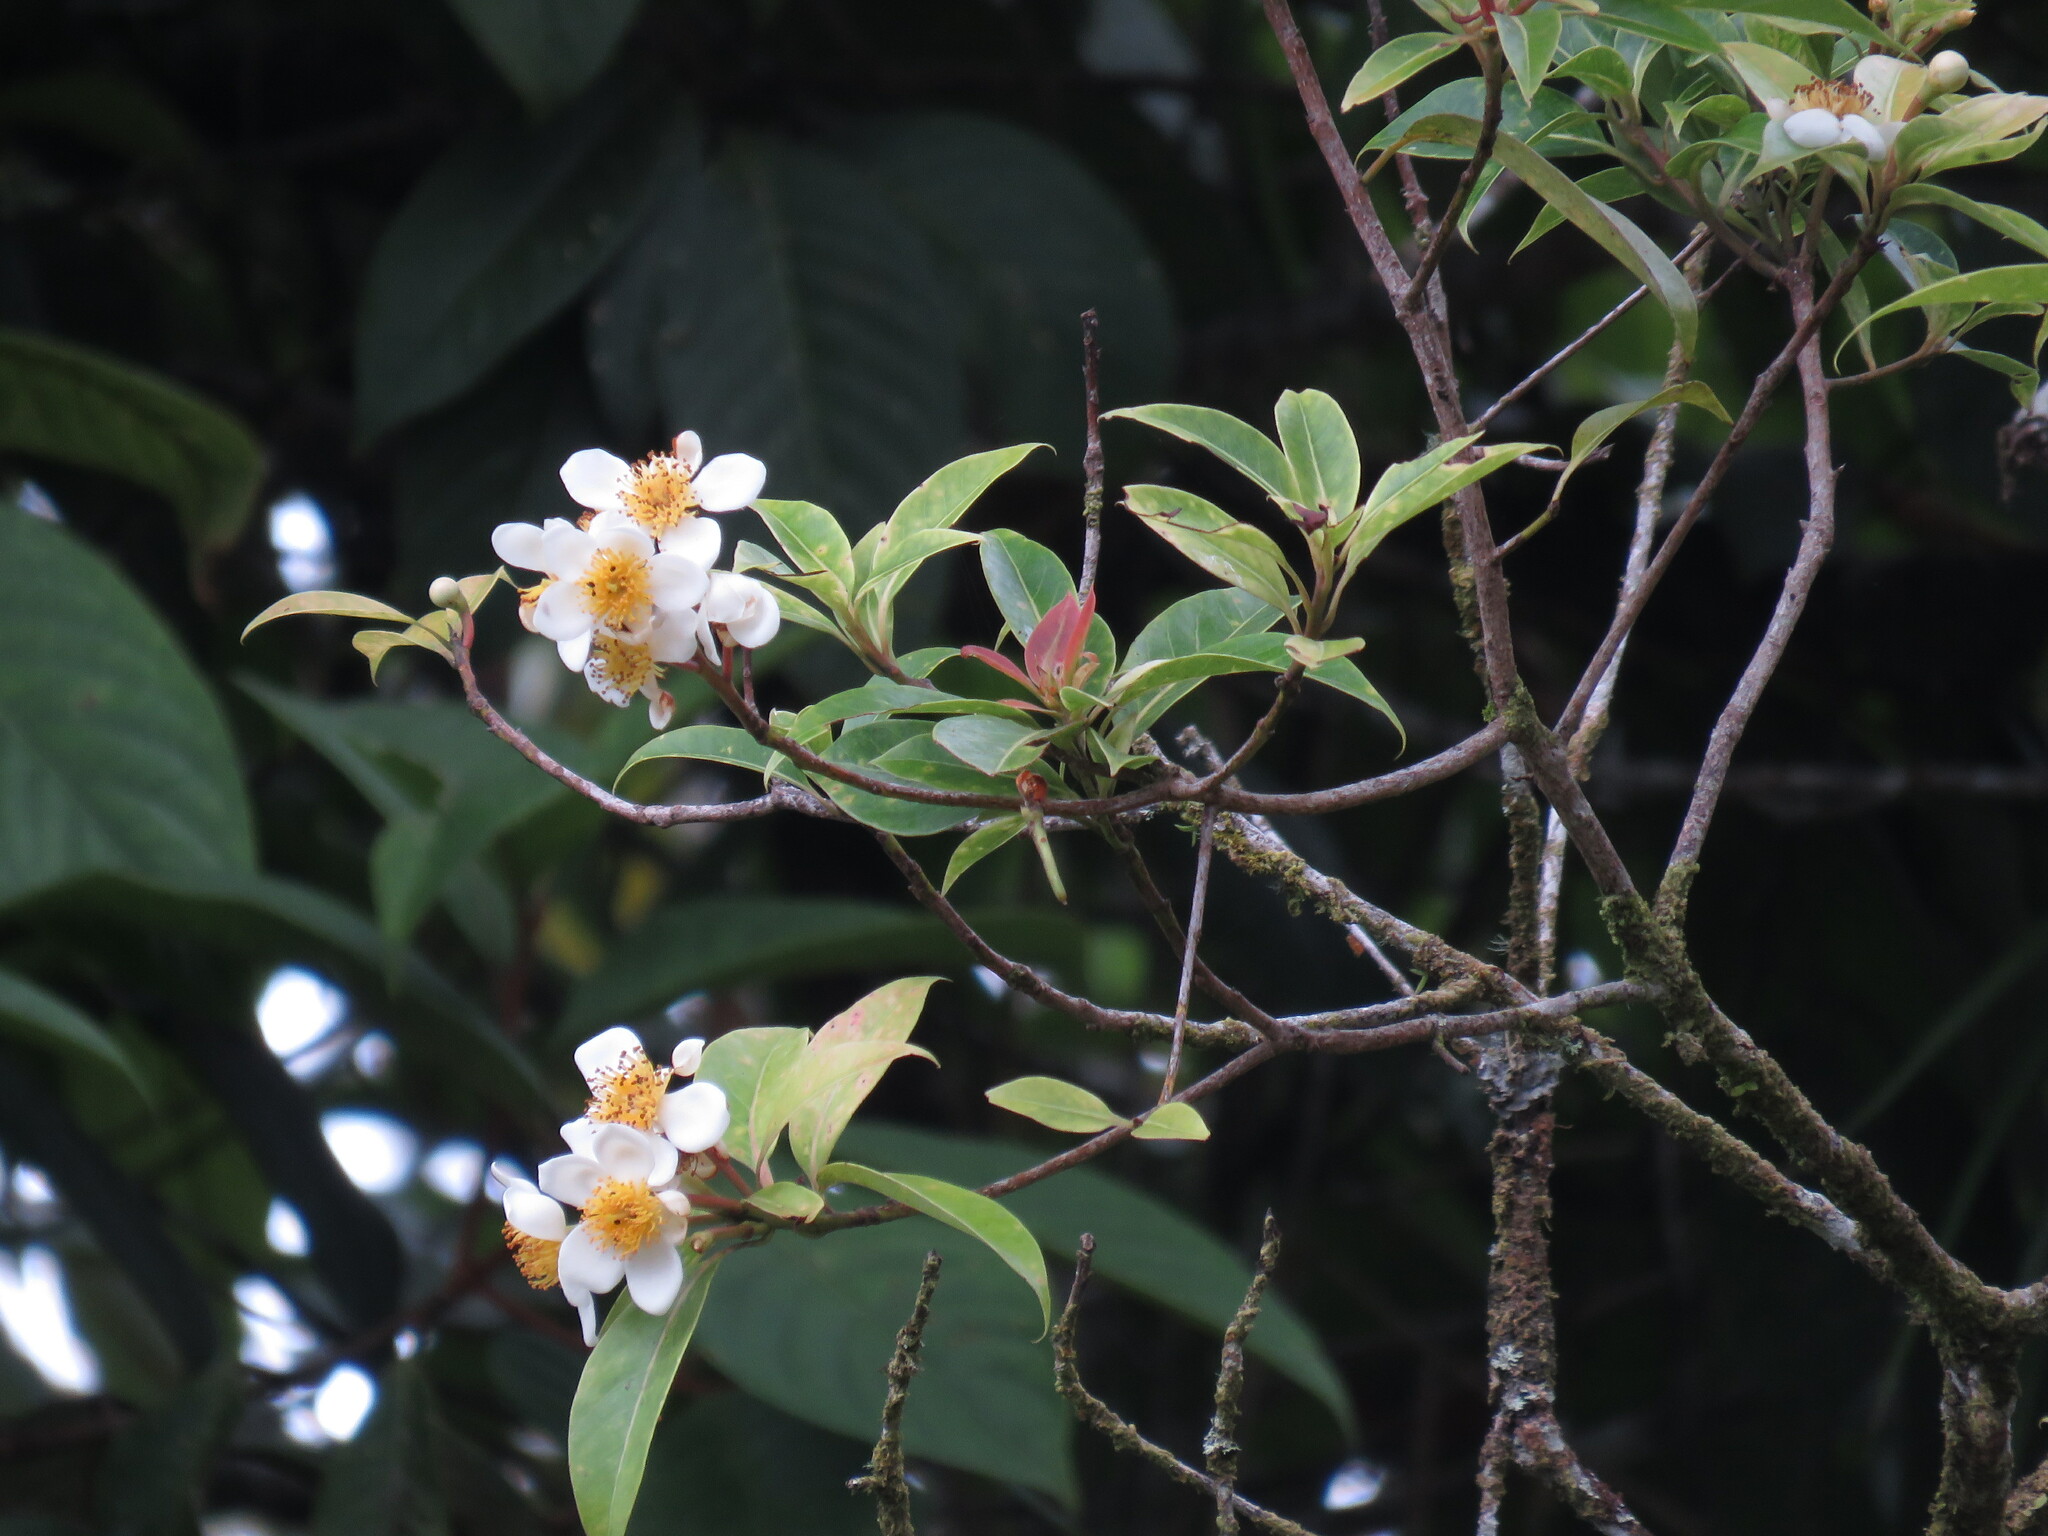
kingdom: Plantae
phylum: Tracheophyta
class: Magnoliopsida
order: Ericales
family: Theaceae
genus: Schima
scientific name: Schima wallichii
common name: Schima
